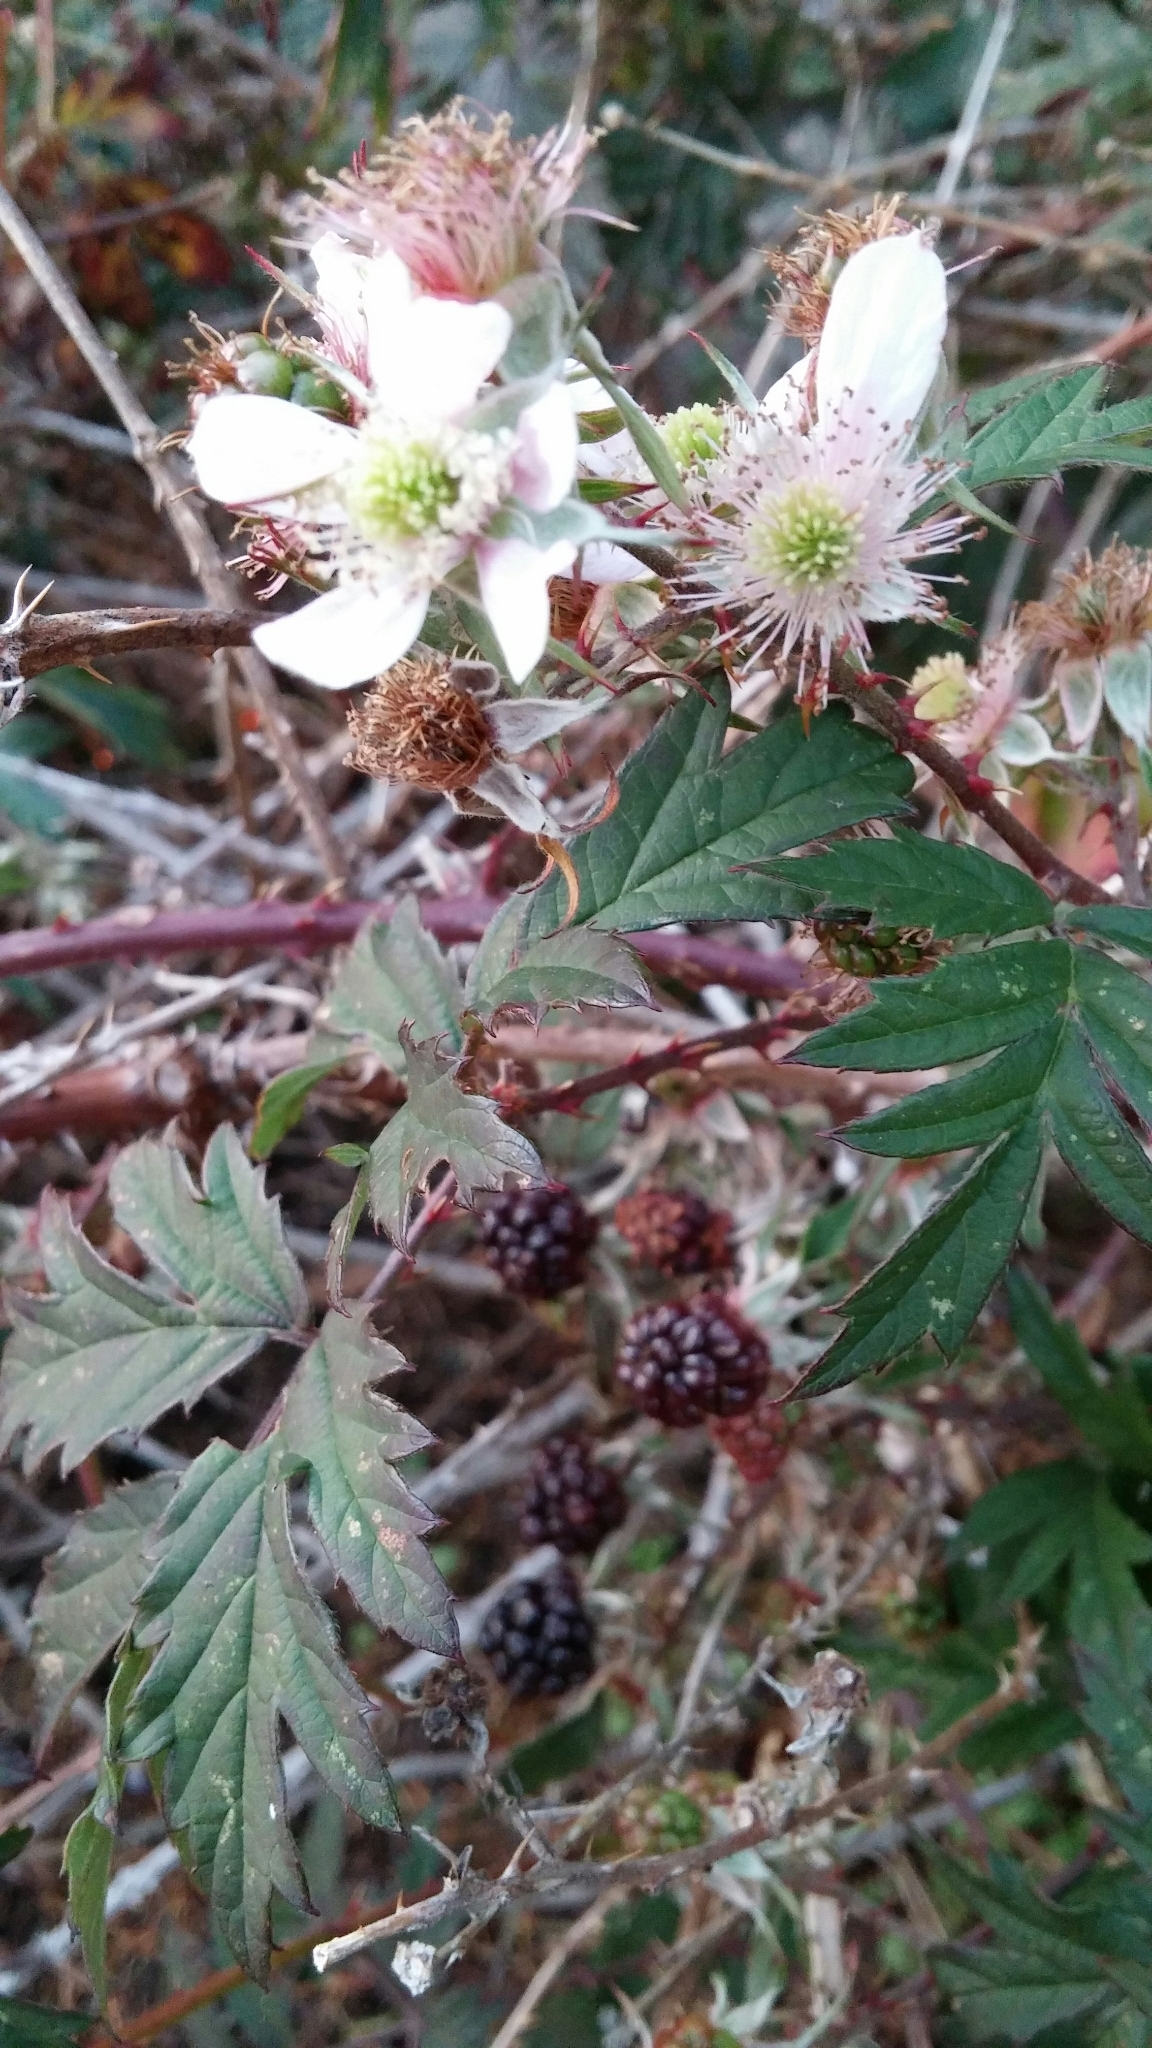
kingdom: Plantae
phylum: Tracheophyta
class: Magnoliopsida
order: Rosales
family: Rosaceae
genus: Rubus
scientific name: Rubus laciniatus
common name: Evergreen blackberry
